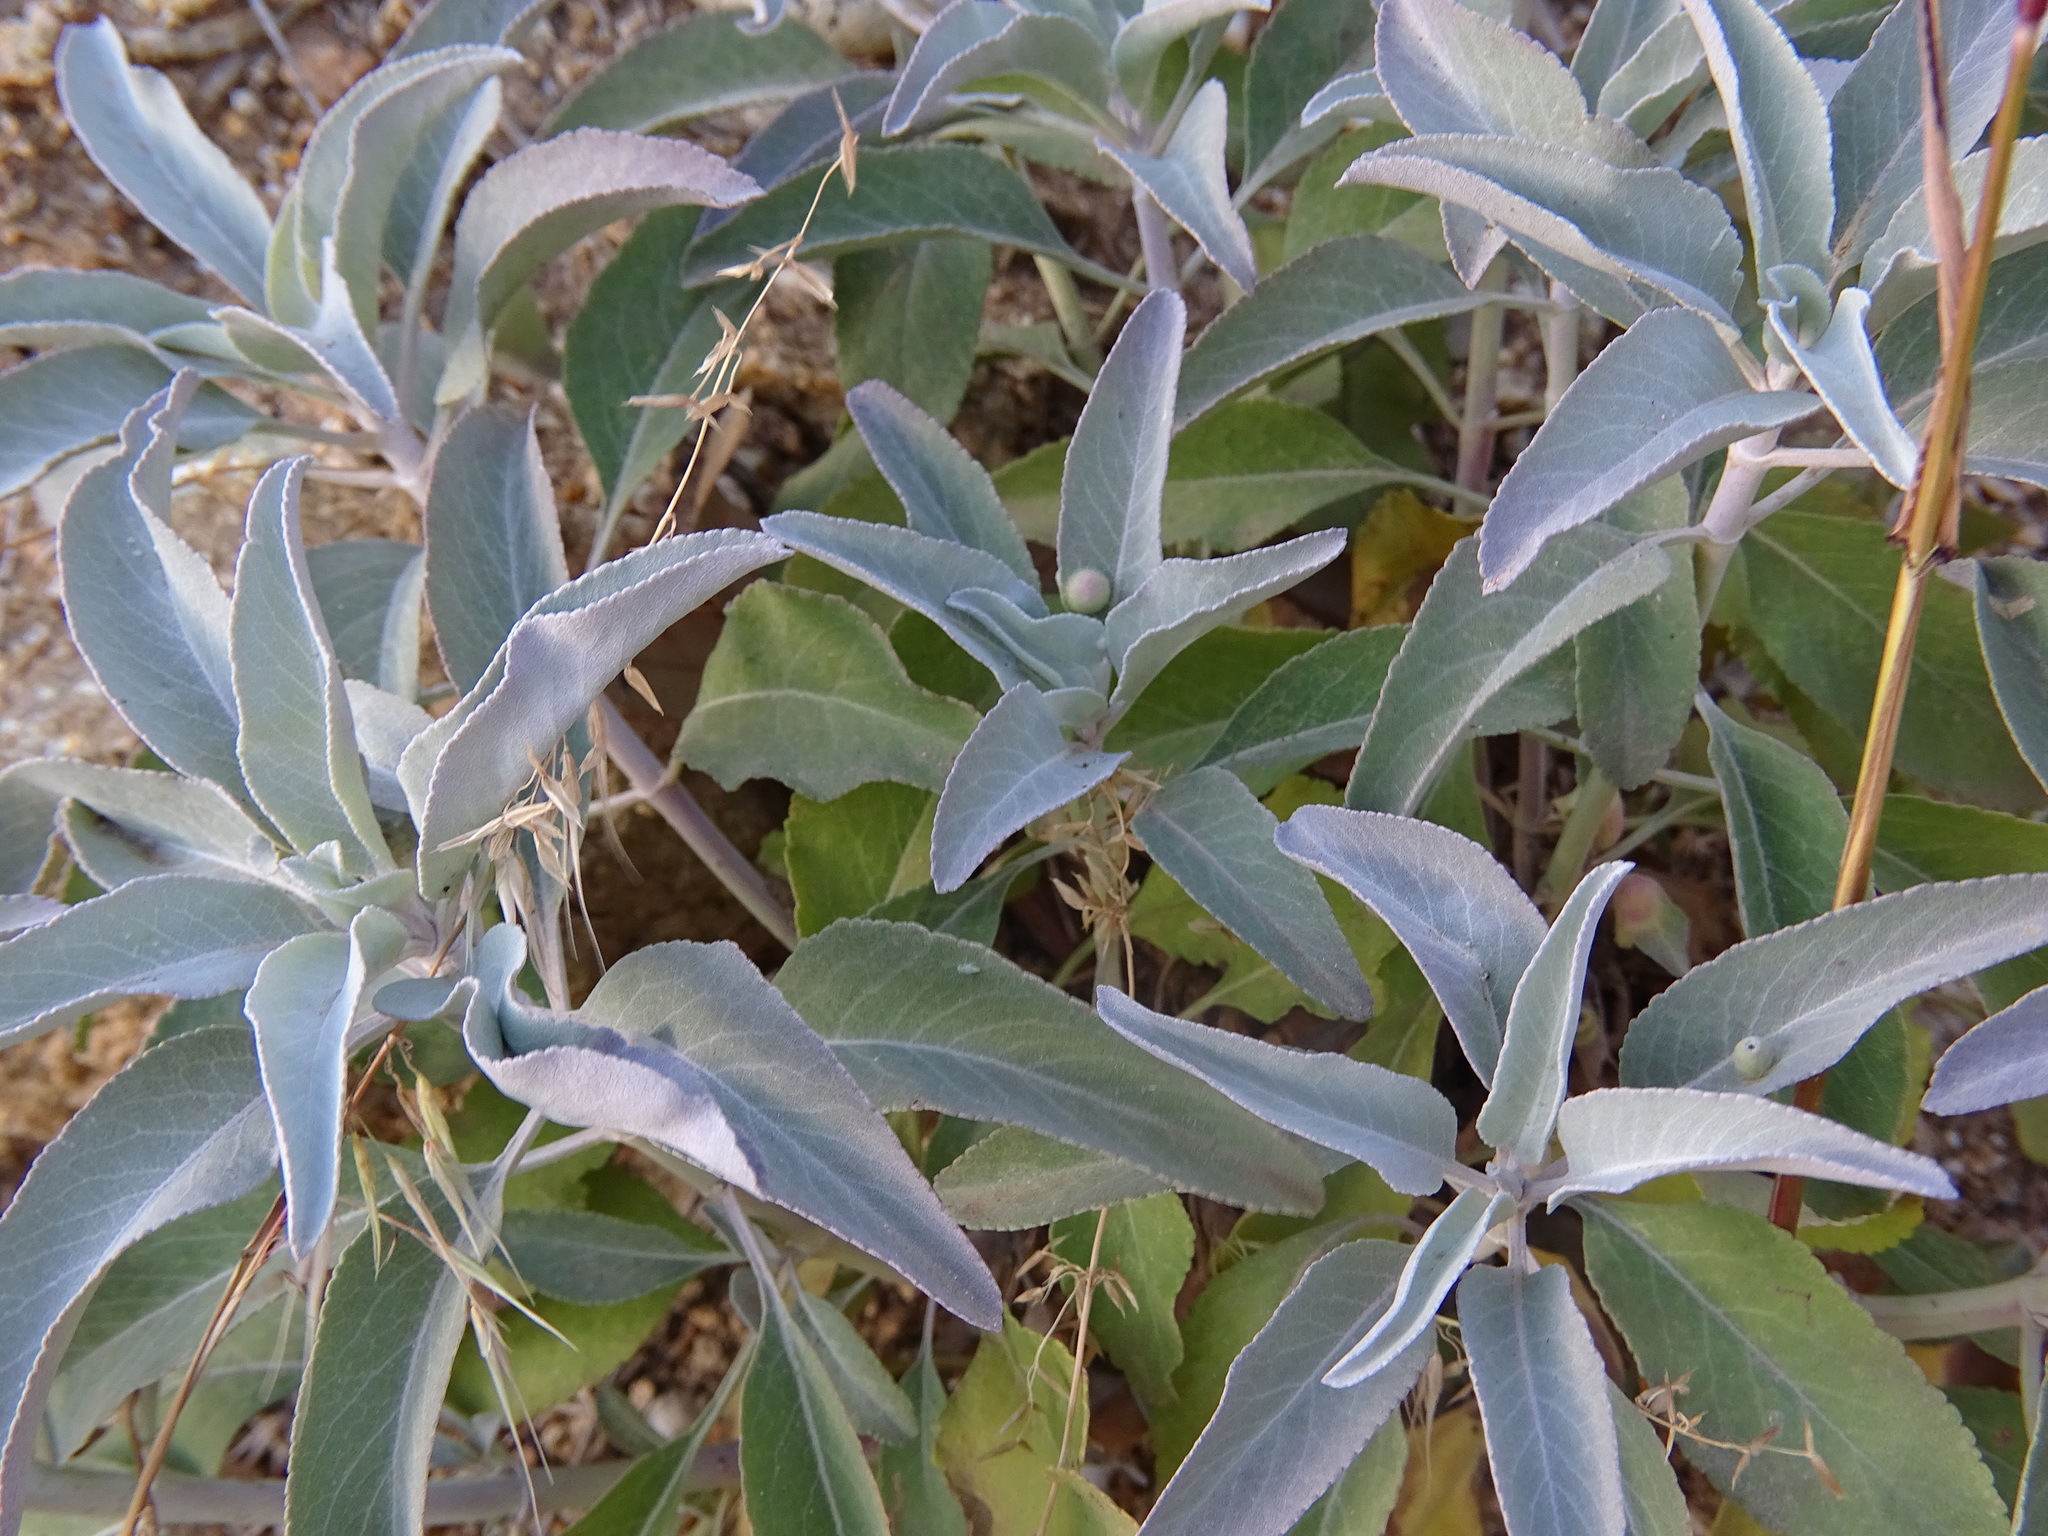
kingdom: Plantae
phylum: Tracheophyta
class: Magnoliopsida
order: Lamiales
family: Lamiaceae
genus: Salvia
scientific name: Salvia apiana
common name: White sage
